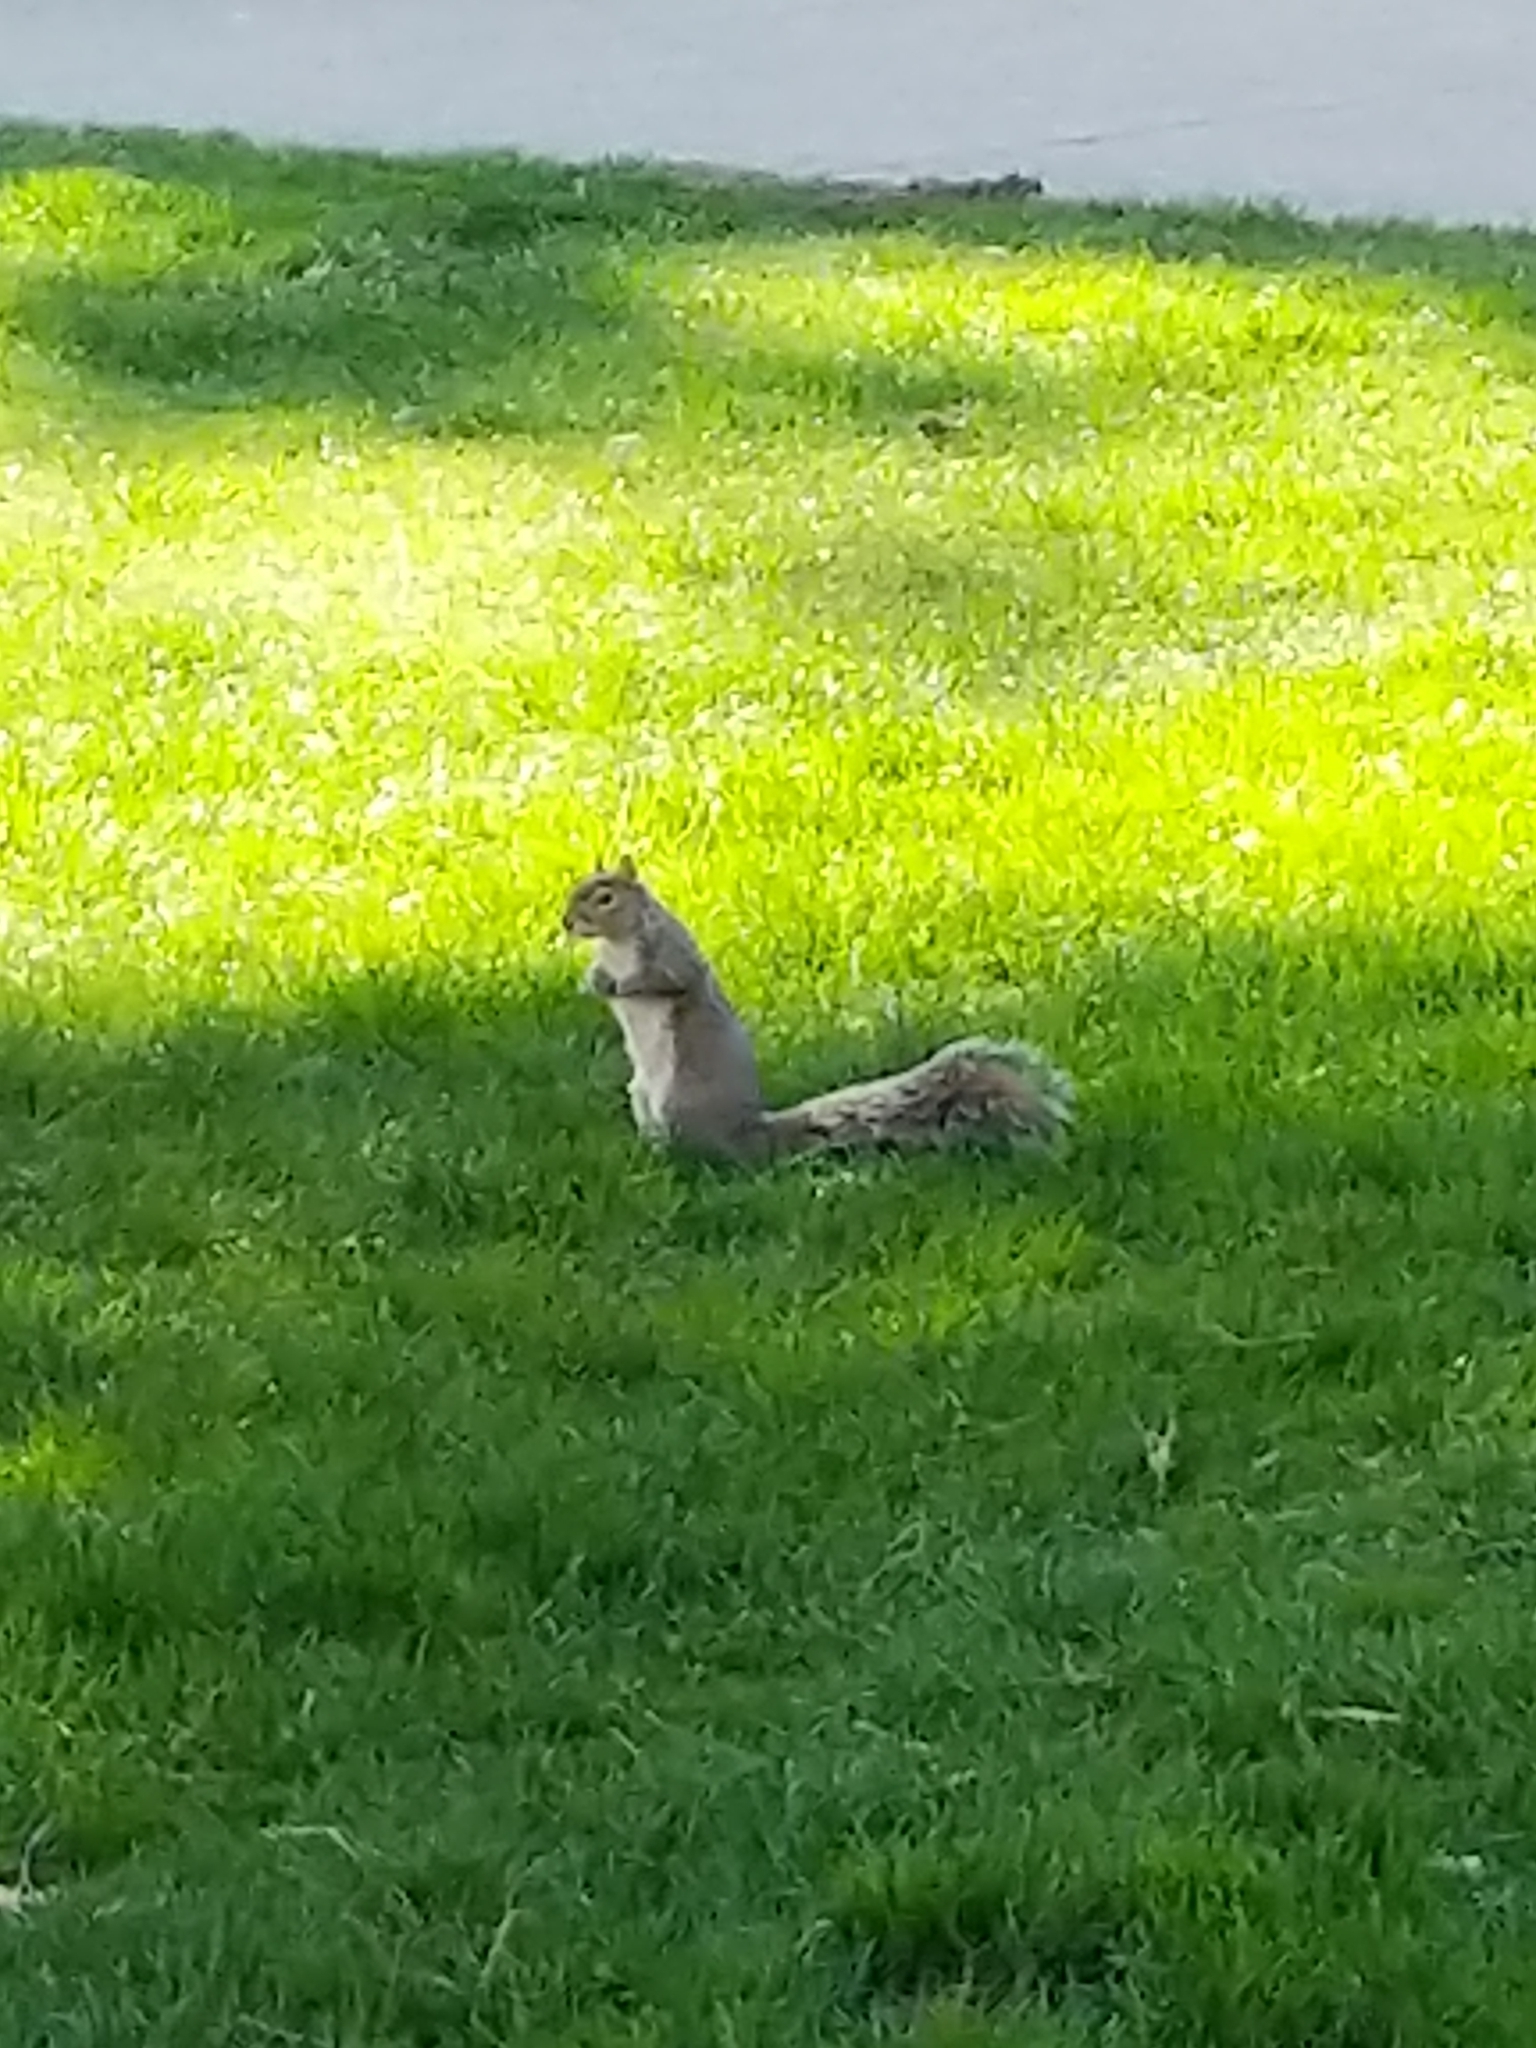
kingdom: Animalia
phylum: Chordata
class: Mammalia
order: Rodentia
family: Sciuridae
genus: Sciurus
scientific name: Sciurus carolinensis
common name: Eastern gray squirrel
